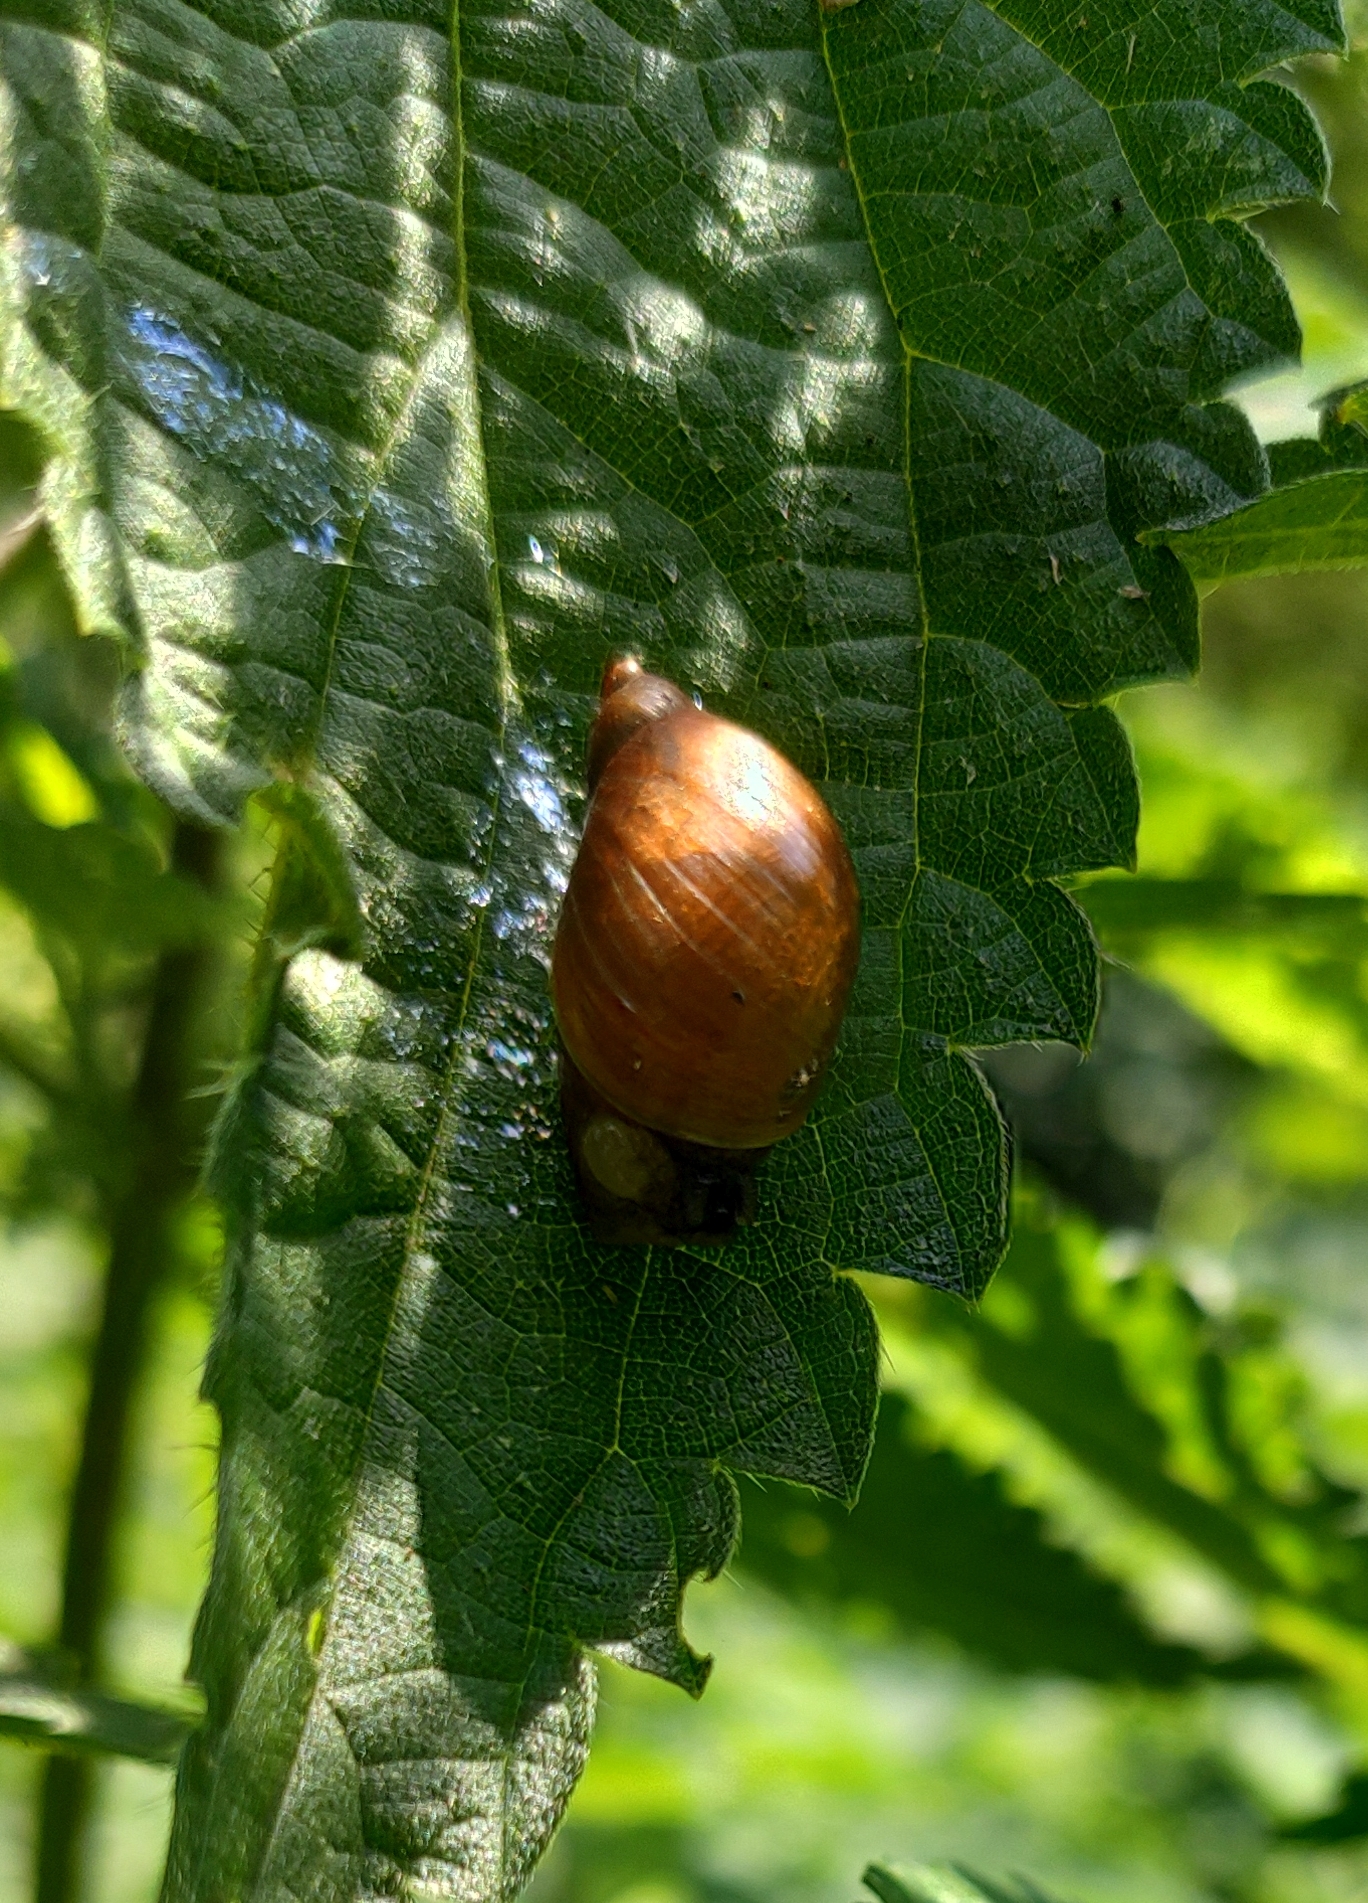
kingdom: Animalia
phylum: Mollusca
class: Gastropoda
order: Stylommatophora
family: Succineidae
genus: Succinea
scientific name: Succinea putris
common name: European ambersnail
